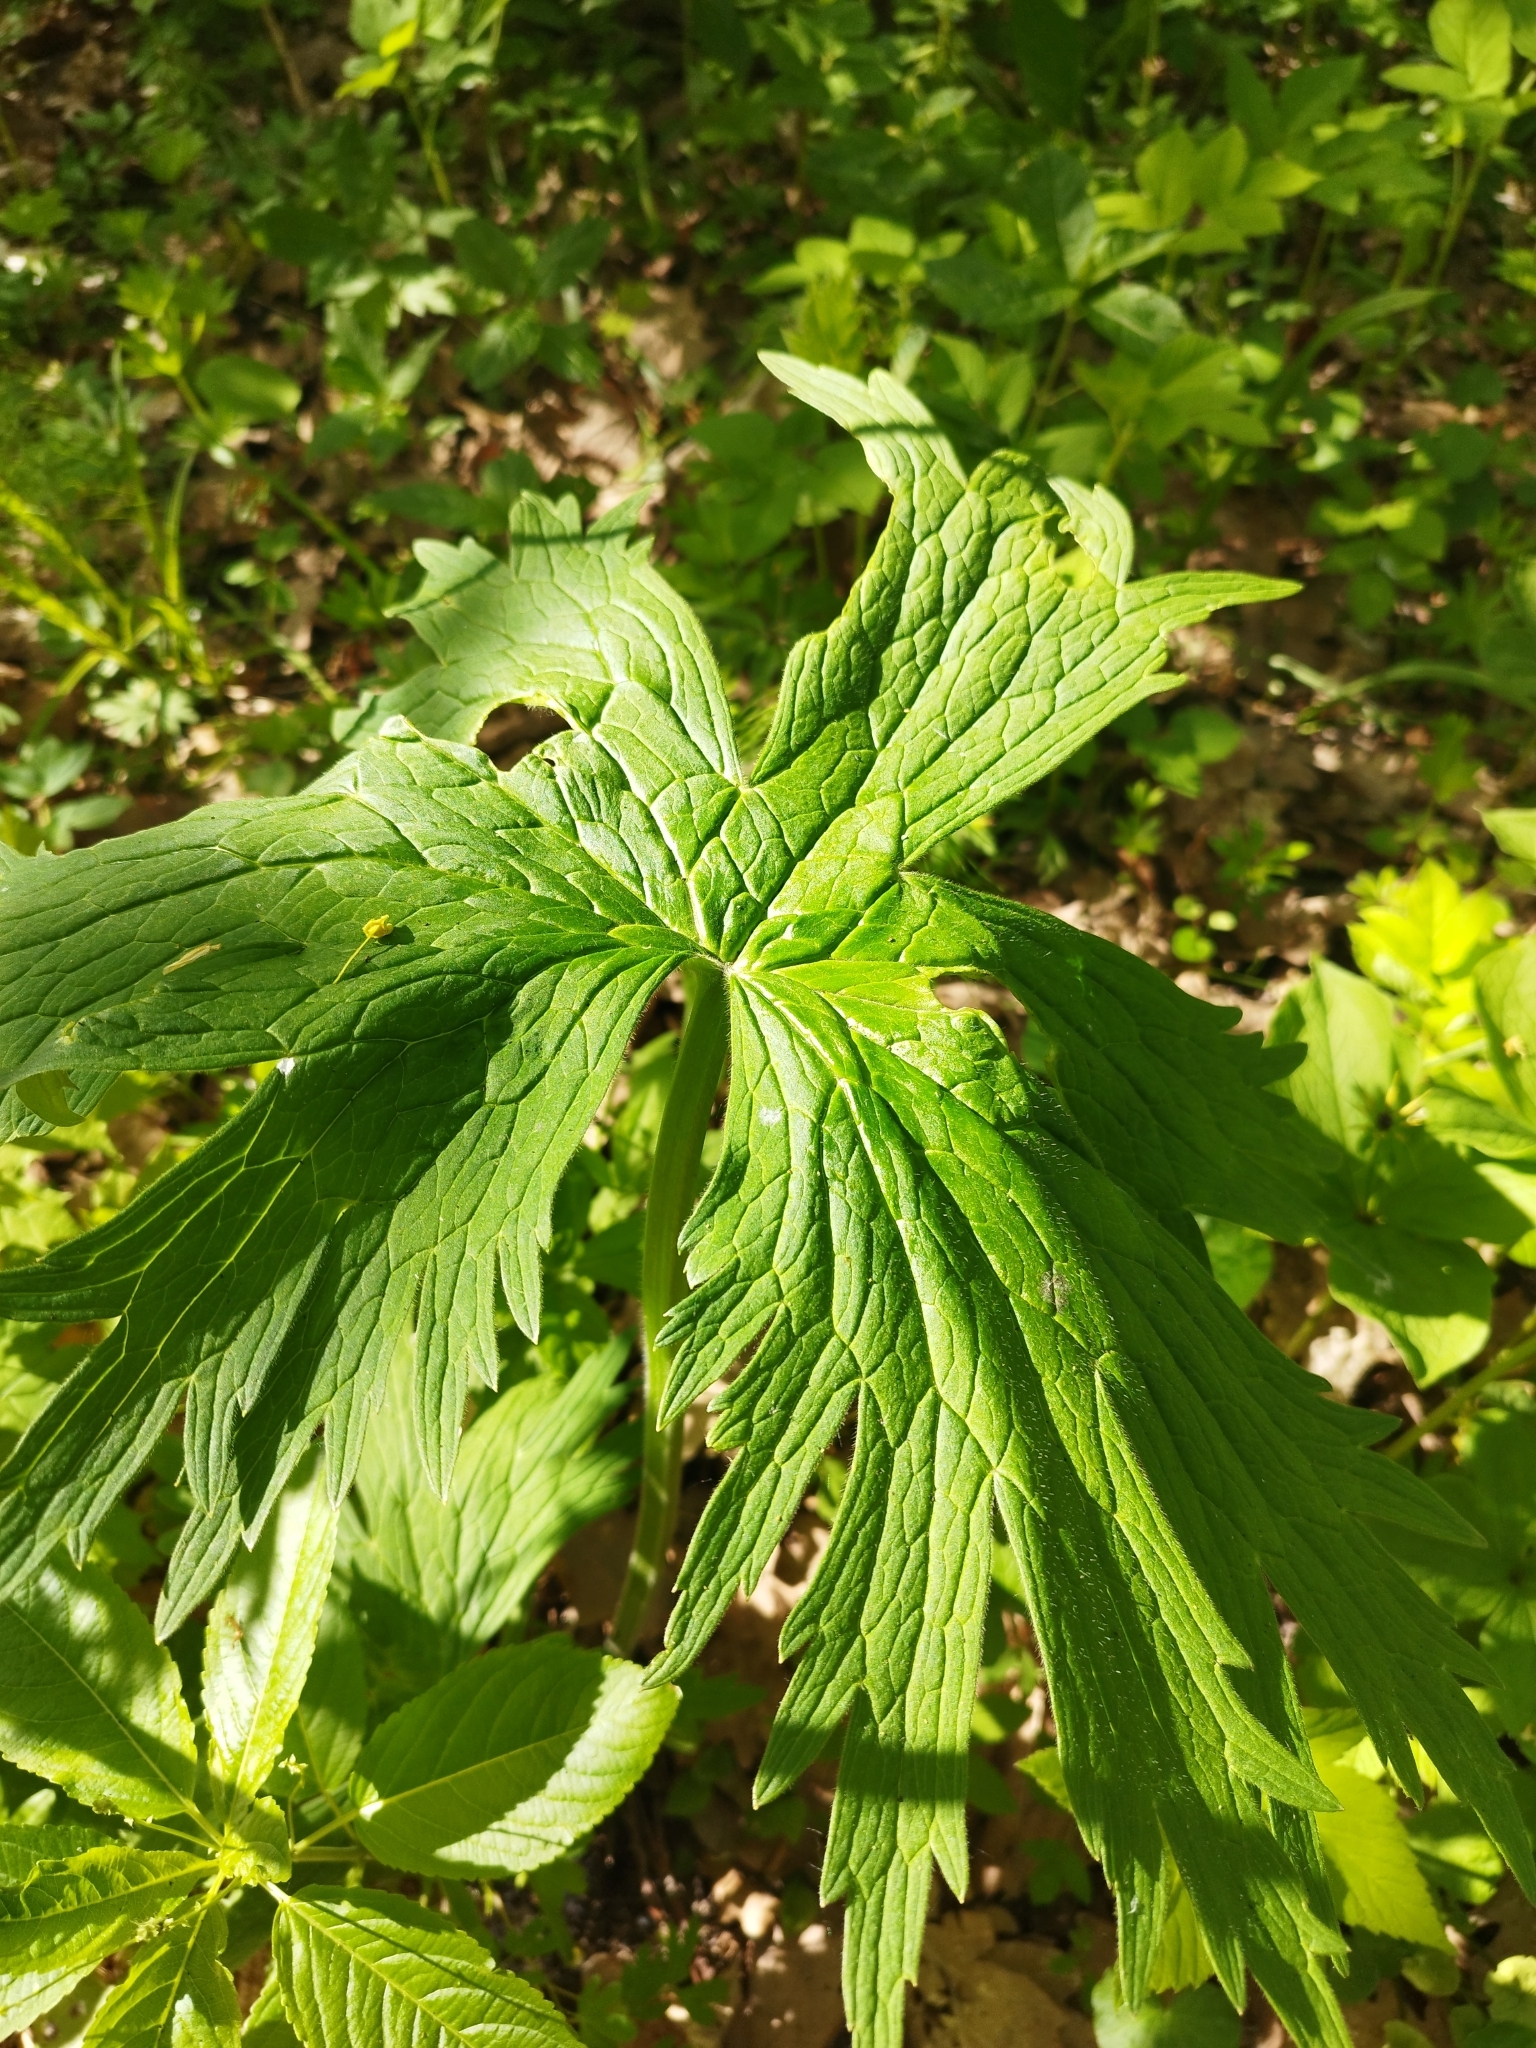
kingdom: Plantae
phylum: Tracheophyta
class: Magnoliopsida
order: Ranunculales
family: Ranunculaceae
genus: Aconitum
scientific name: Aconitum septentrionale
